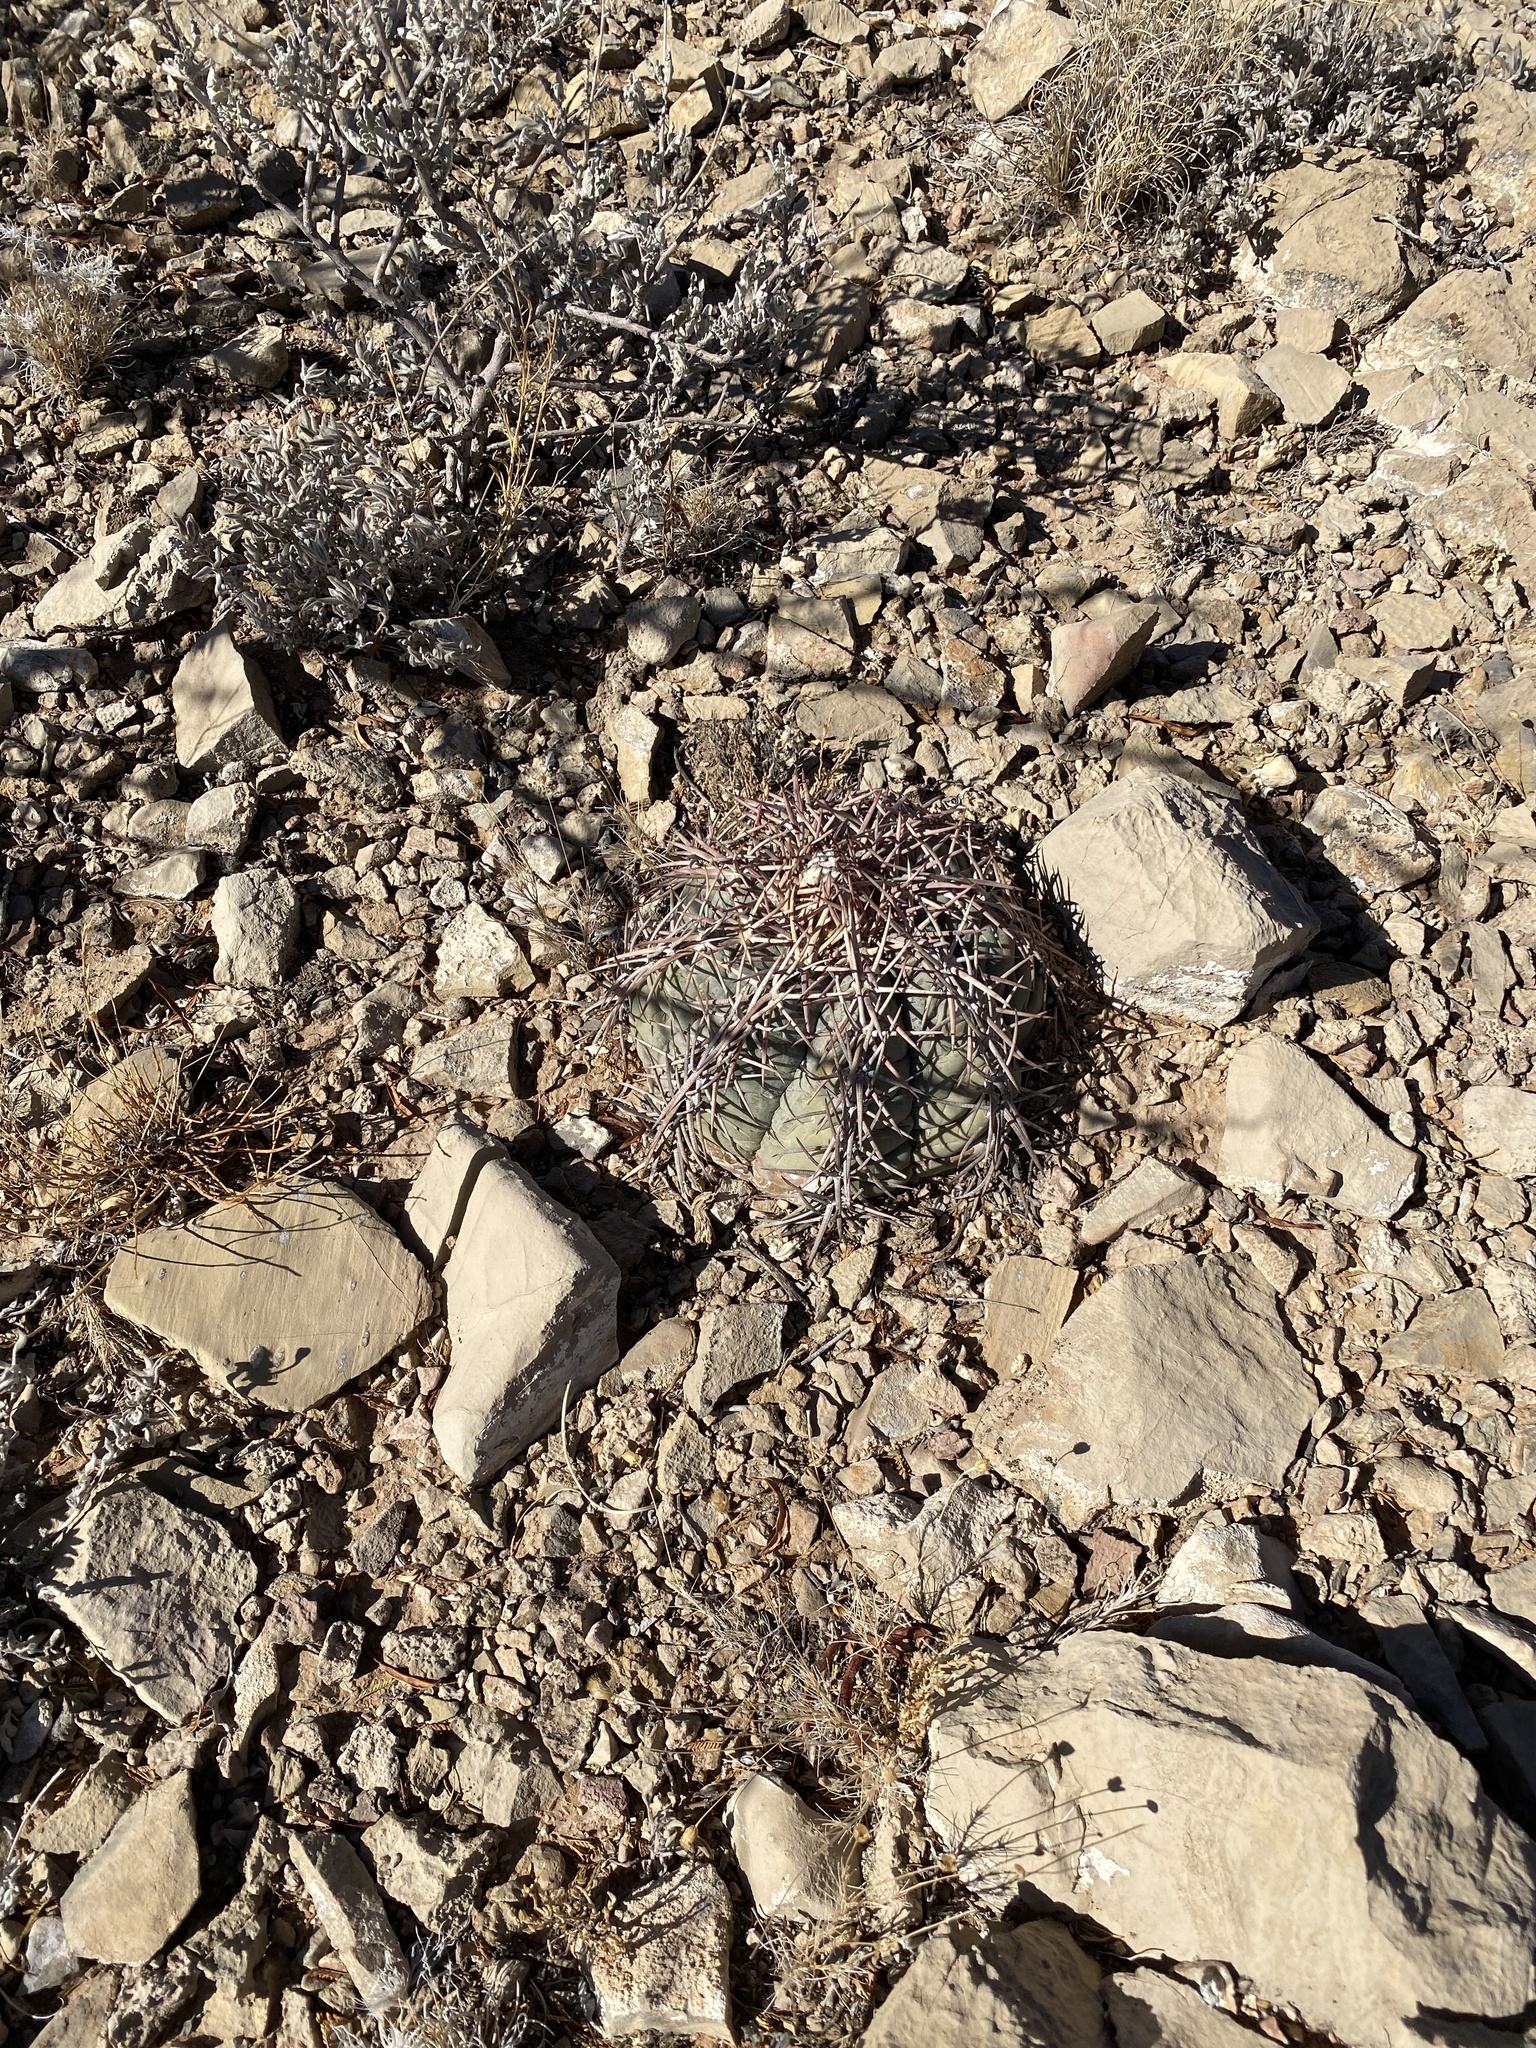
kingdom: Plantae
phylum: Tracheophyta
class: Magnoliopsida
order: Caryophyllales
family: Cactaceae
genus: Echinocactus
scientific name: Echinocactus horizonthalonius
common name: Devilshead
